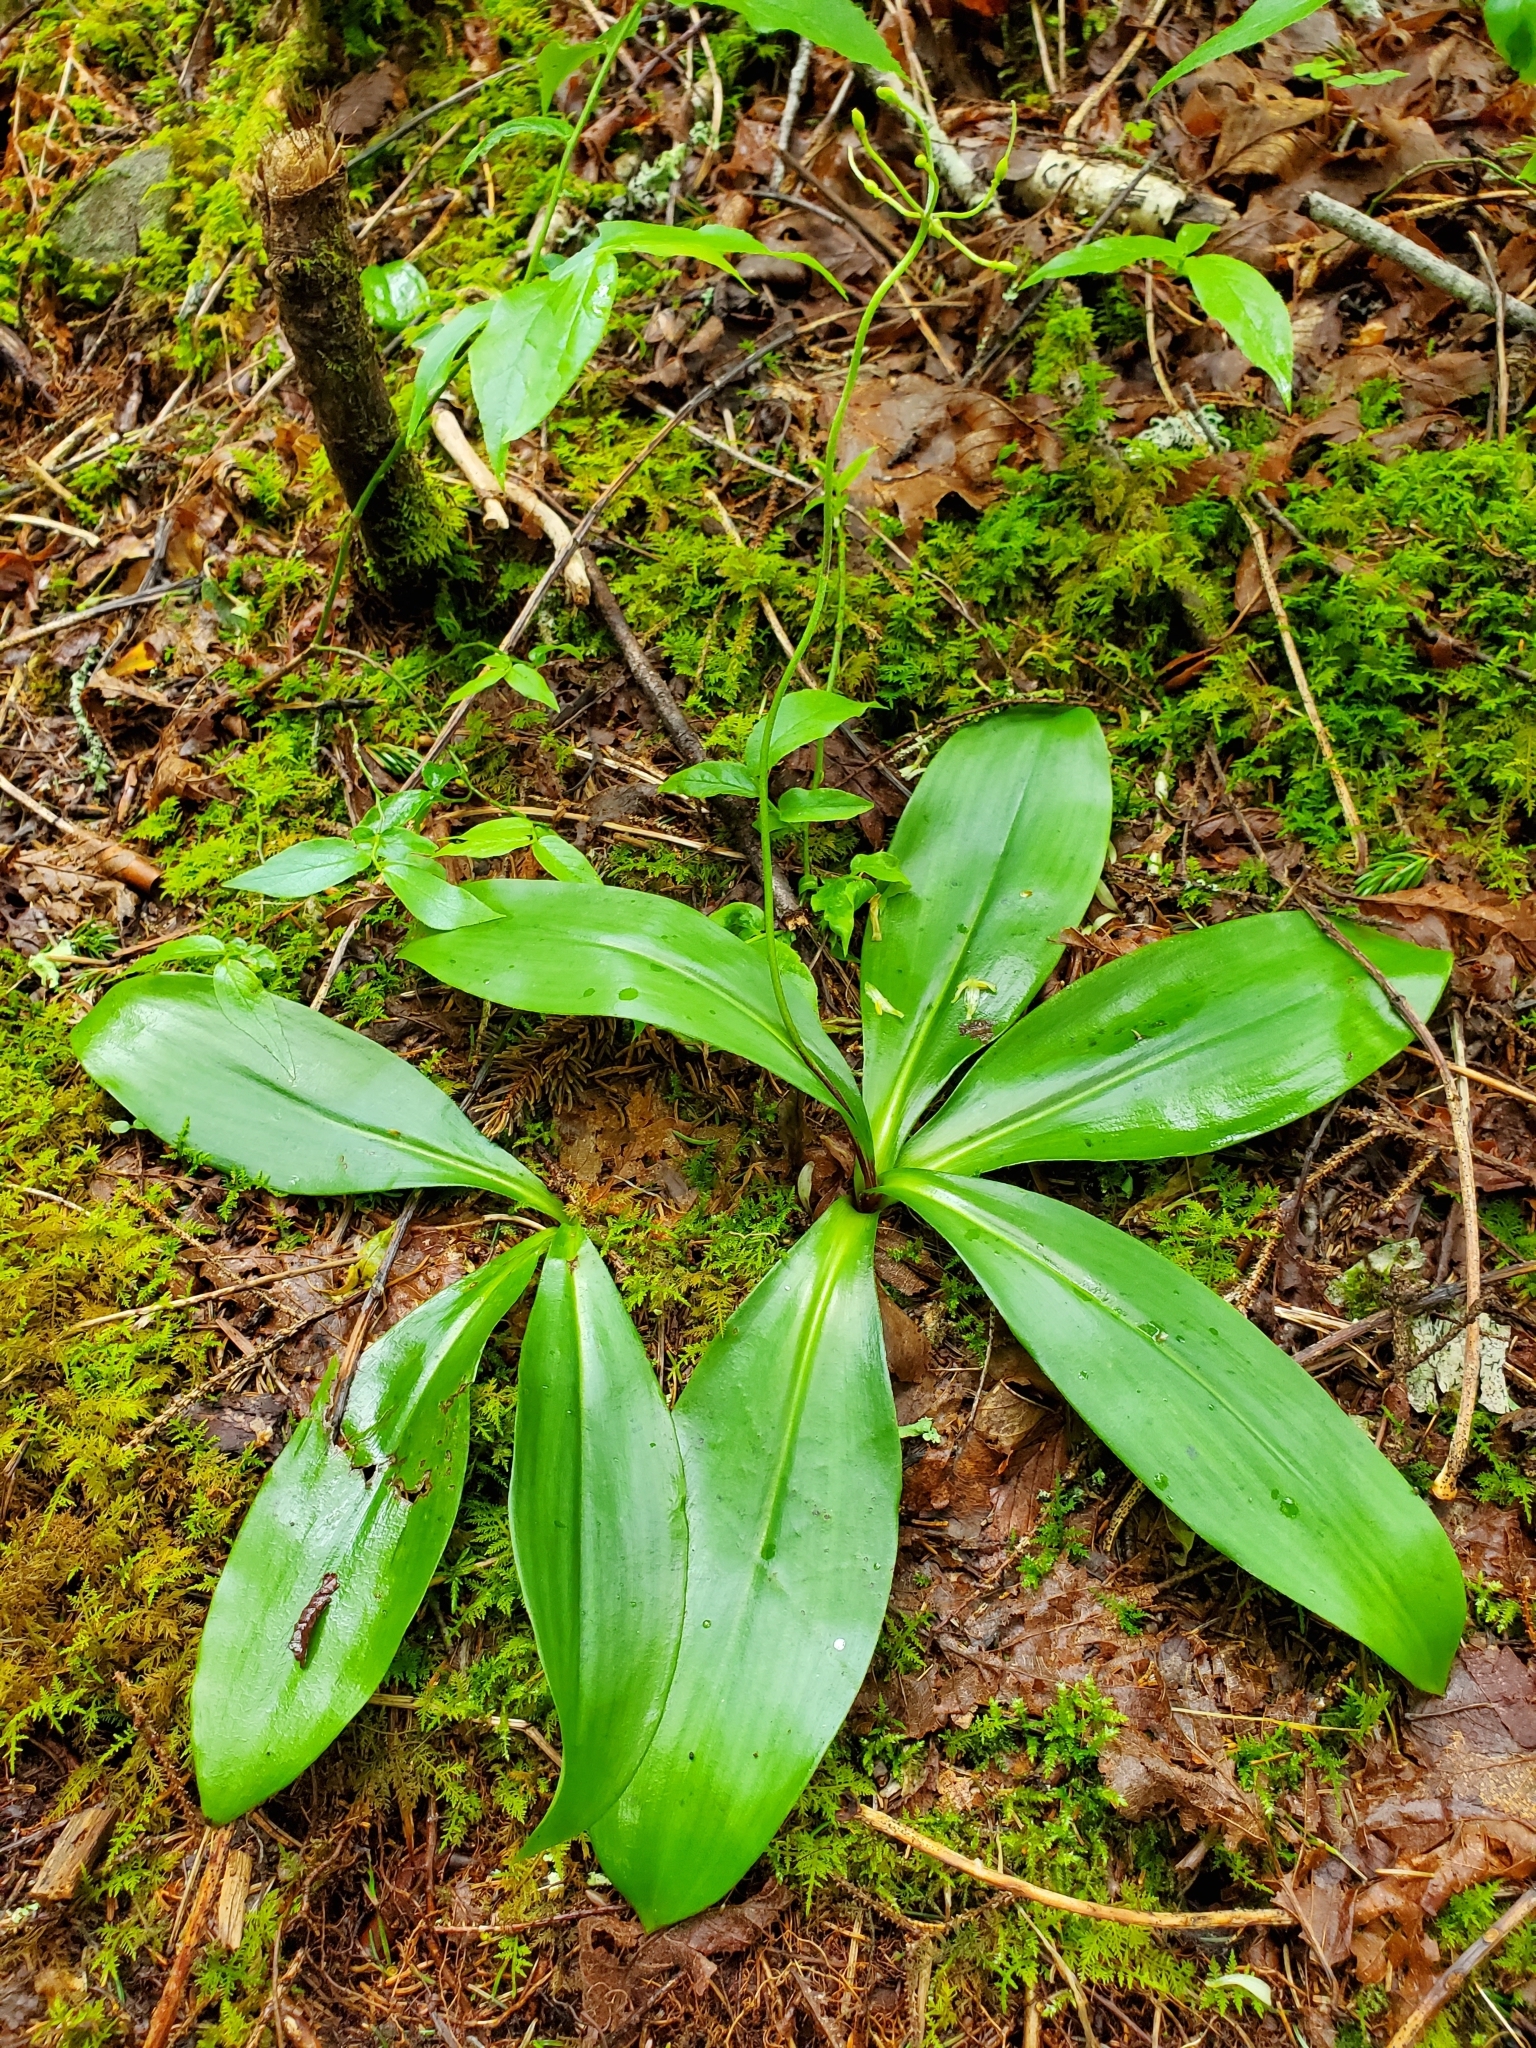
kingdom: Plantae
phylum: Tracheophyta
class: Liliopsida
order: Liliales
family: Liliaceae
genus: Clintonia
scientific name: Clintonia borealis
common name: Yellow clintonia
